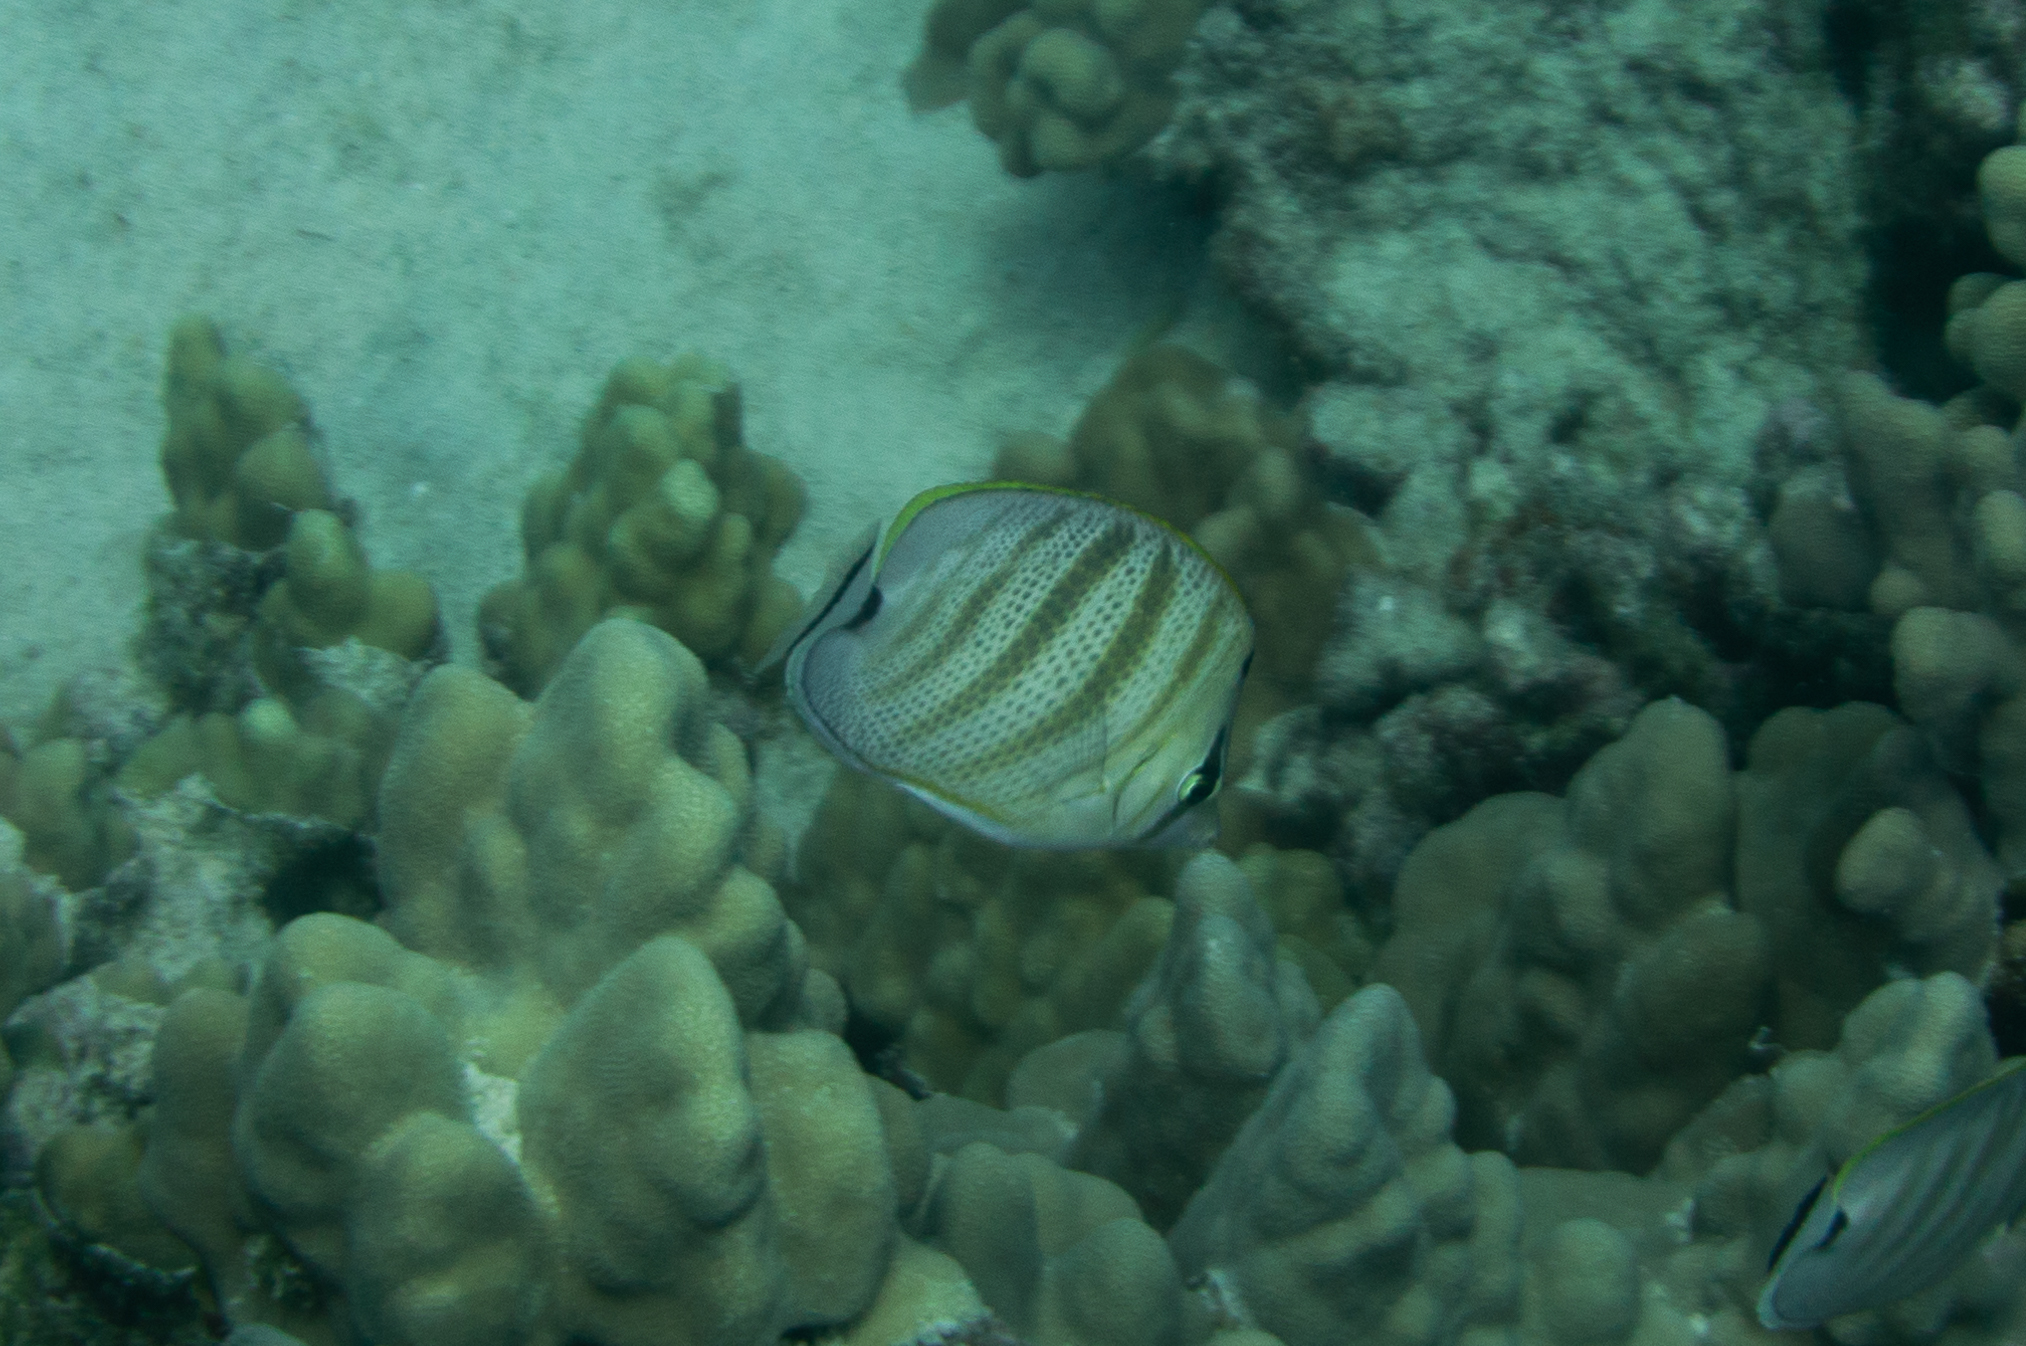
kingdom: Animalia
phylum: Chordata
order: Perciformes
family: Chaetodontidae
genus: Chaetodon
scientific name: Chaetodon multicinctus
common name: Multiband butterflyfish
